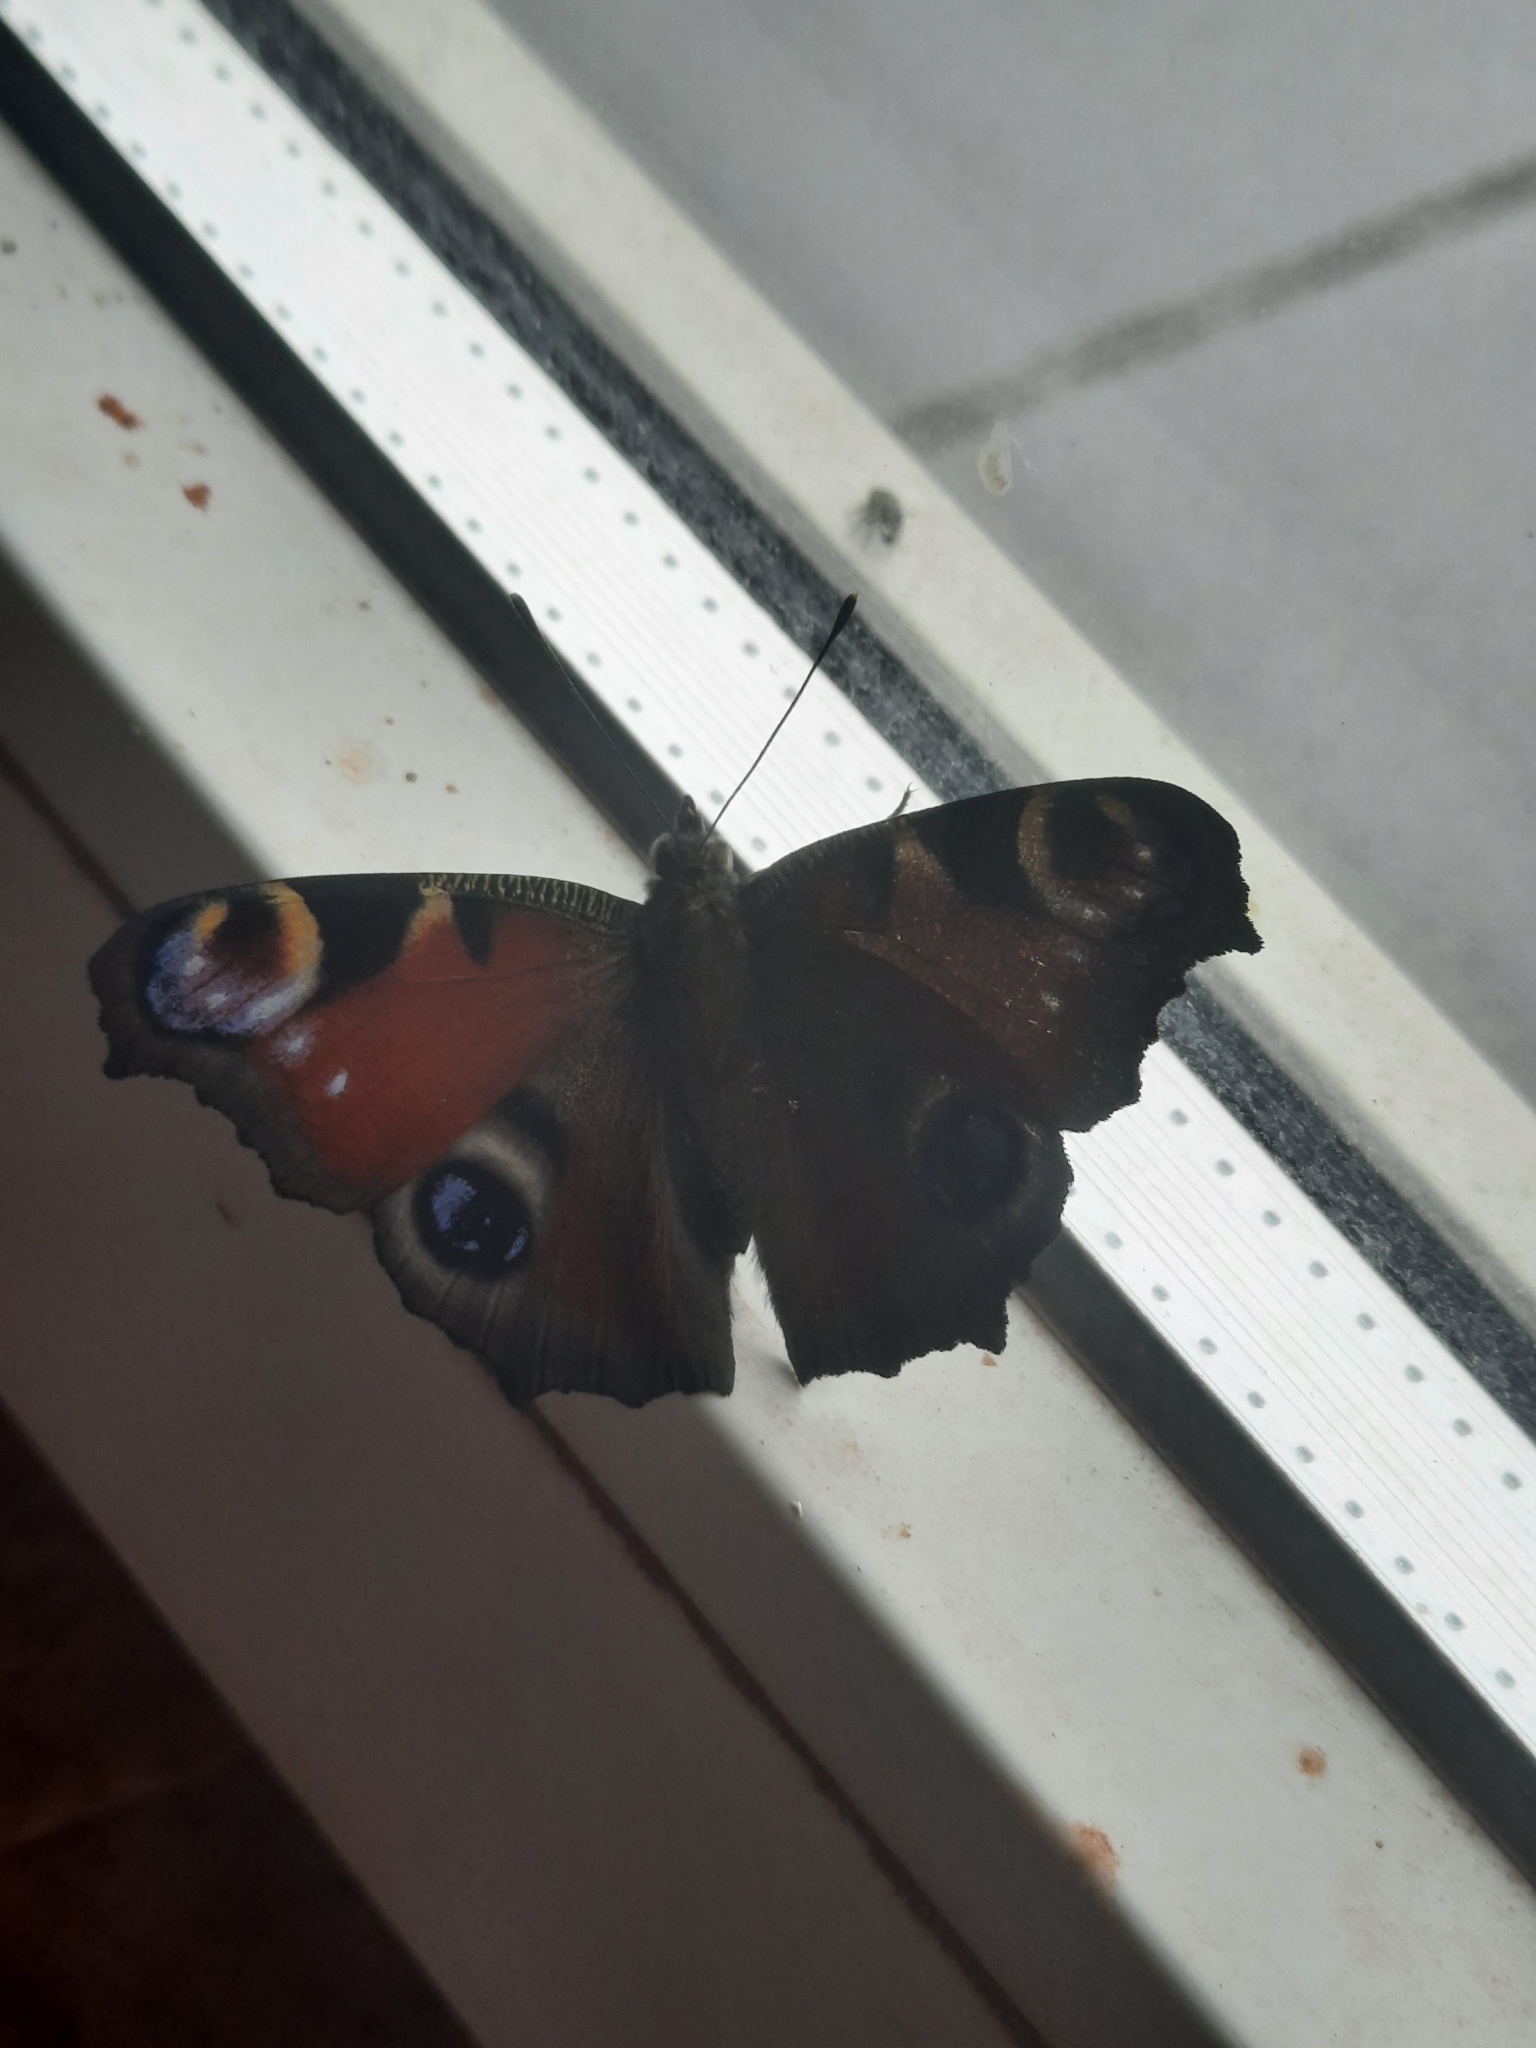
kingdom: Animalia
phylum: Arthropoda
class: Insecta
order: Lepidoptera
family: Nymphalidae
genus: Aglais
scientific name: Aglais io
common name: Peacock
